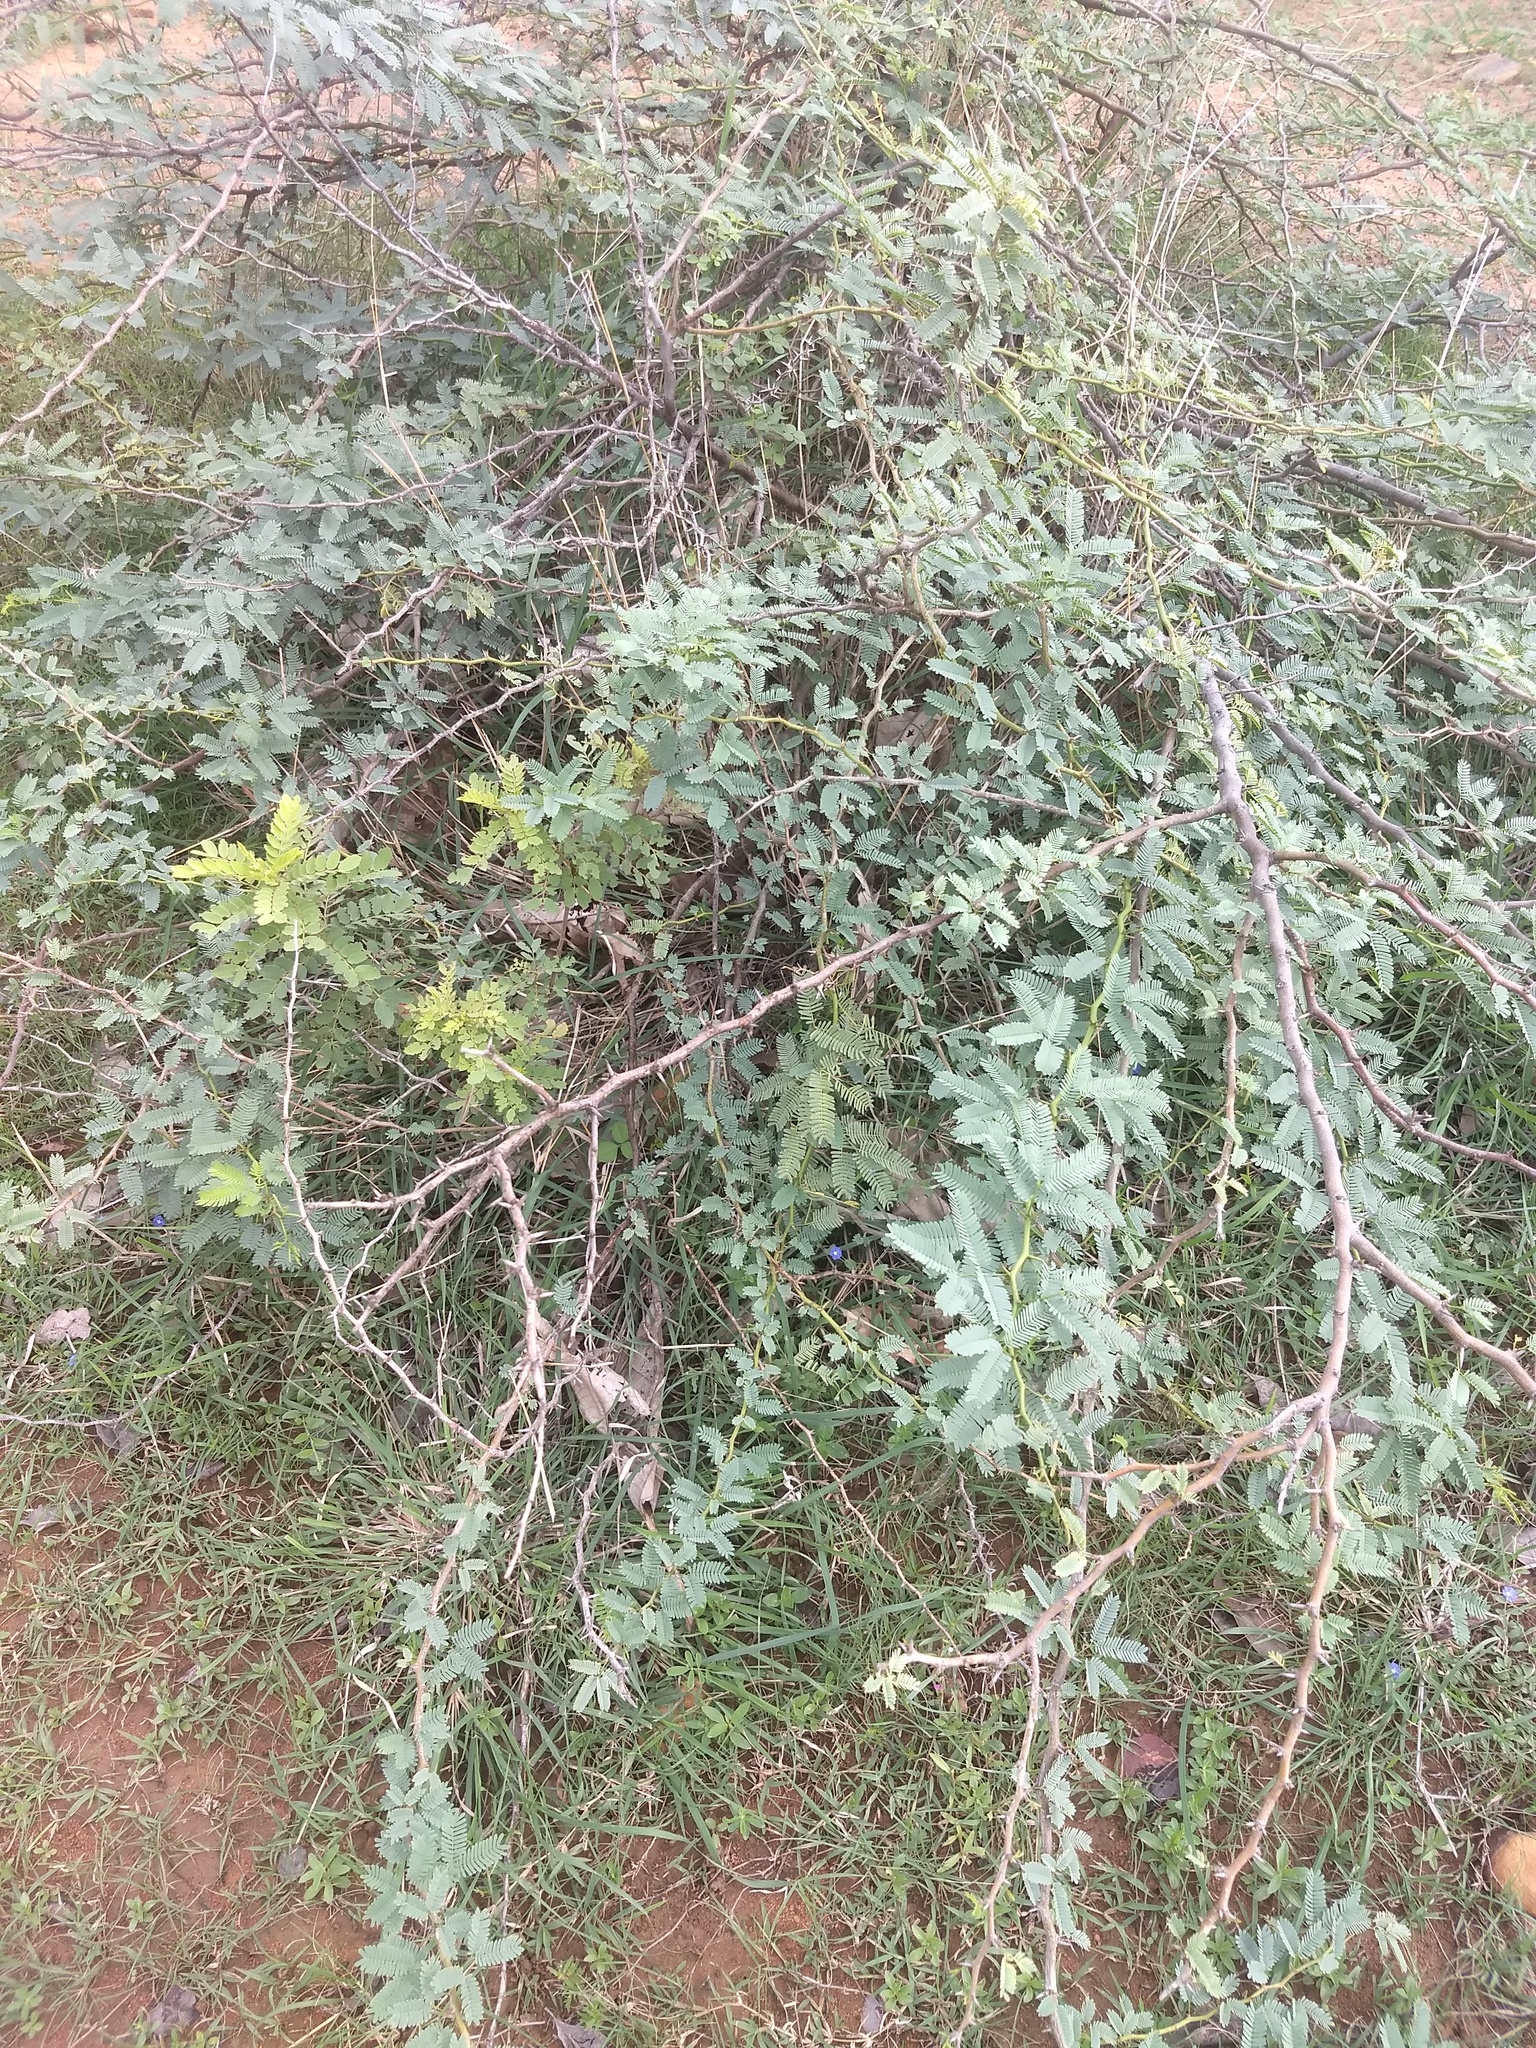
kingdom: Plantae
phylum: Tracheophyta
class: Magnoliopsida
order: Fabales
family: Fabaceae
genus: Prosopis
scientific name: Prosopis juliflora
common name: Mesquite
